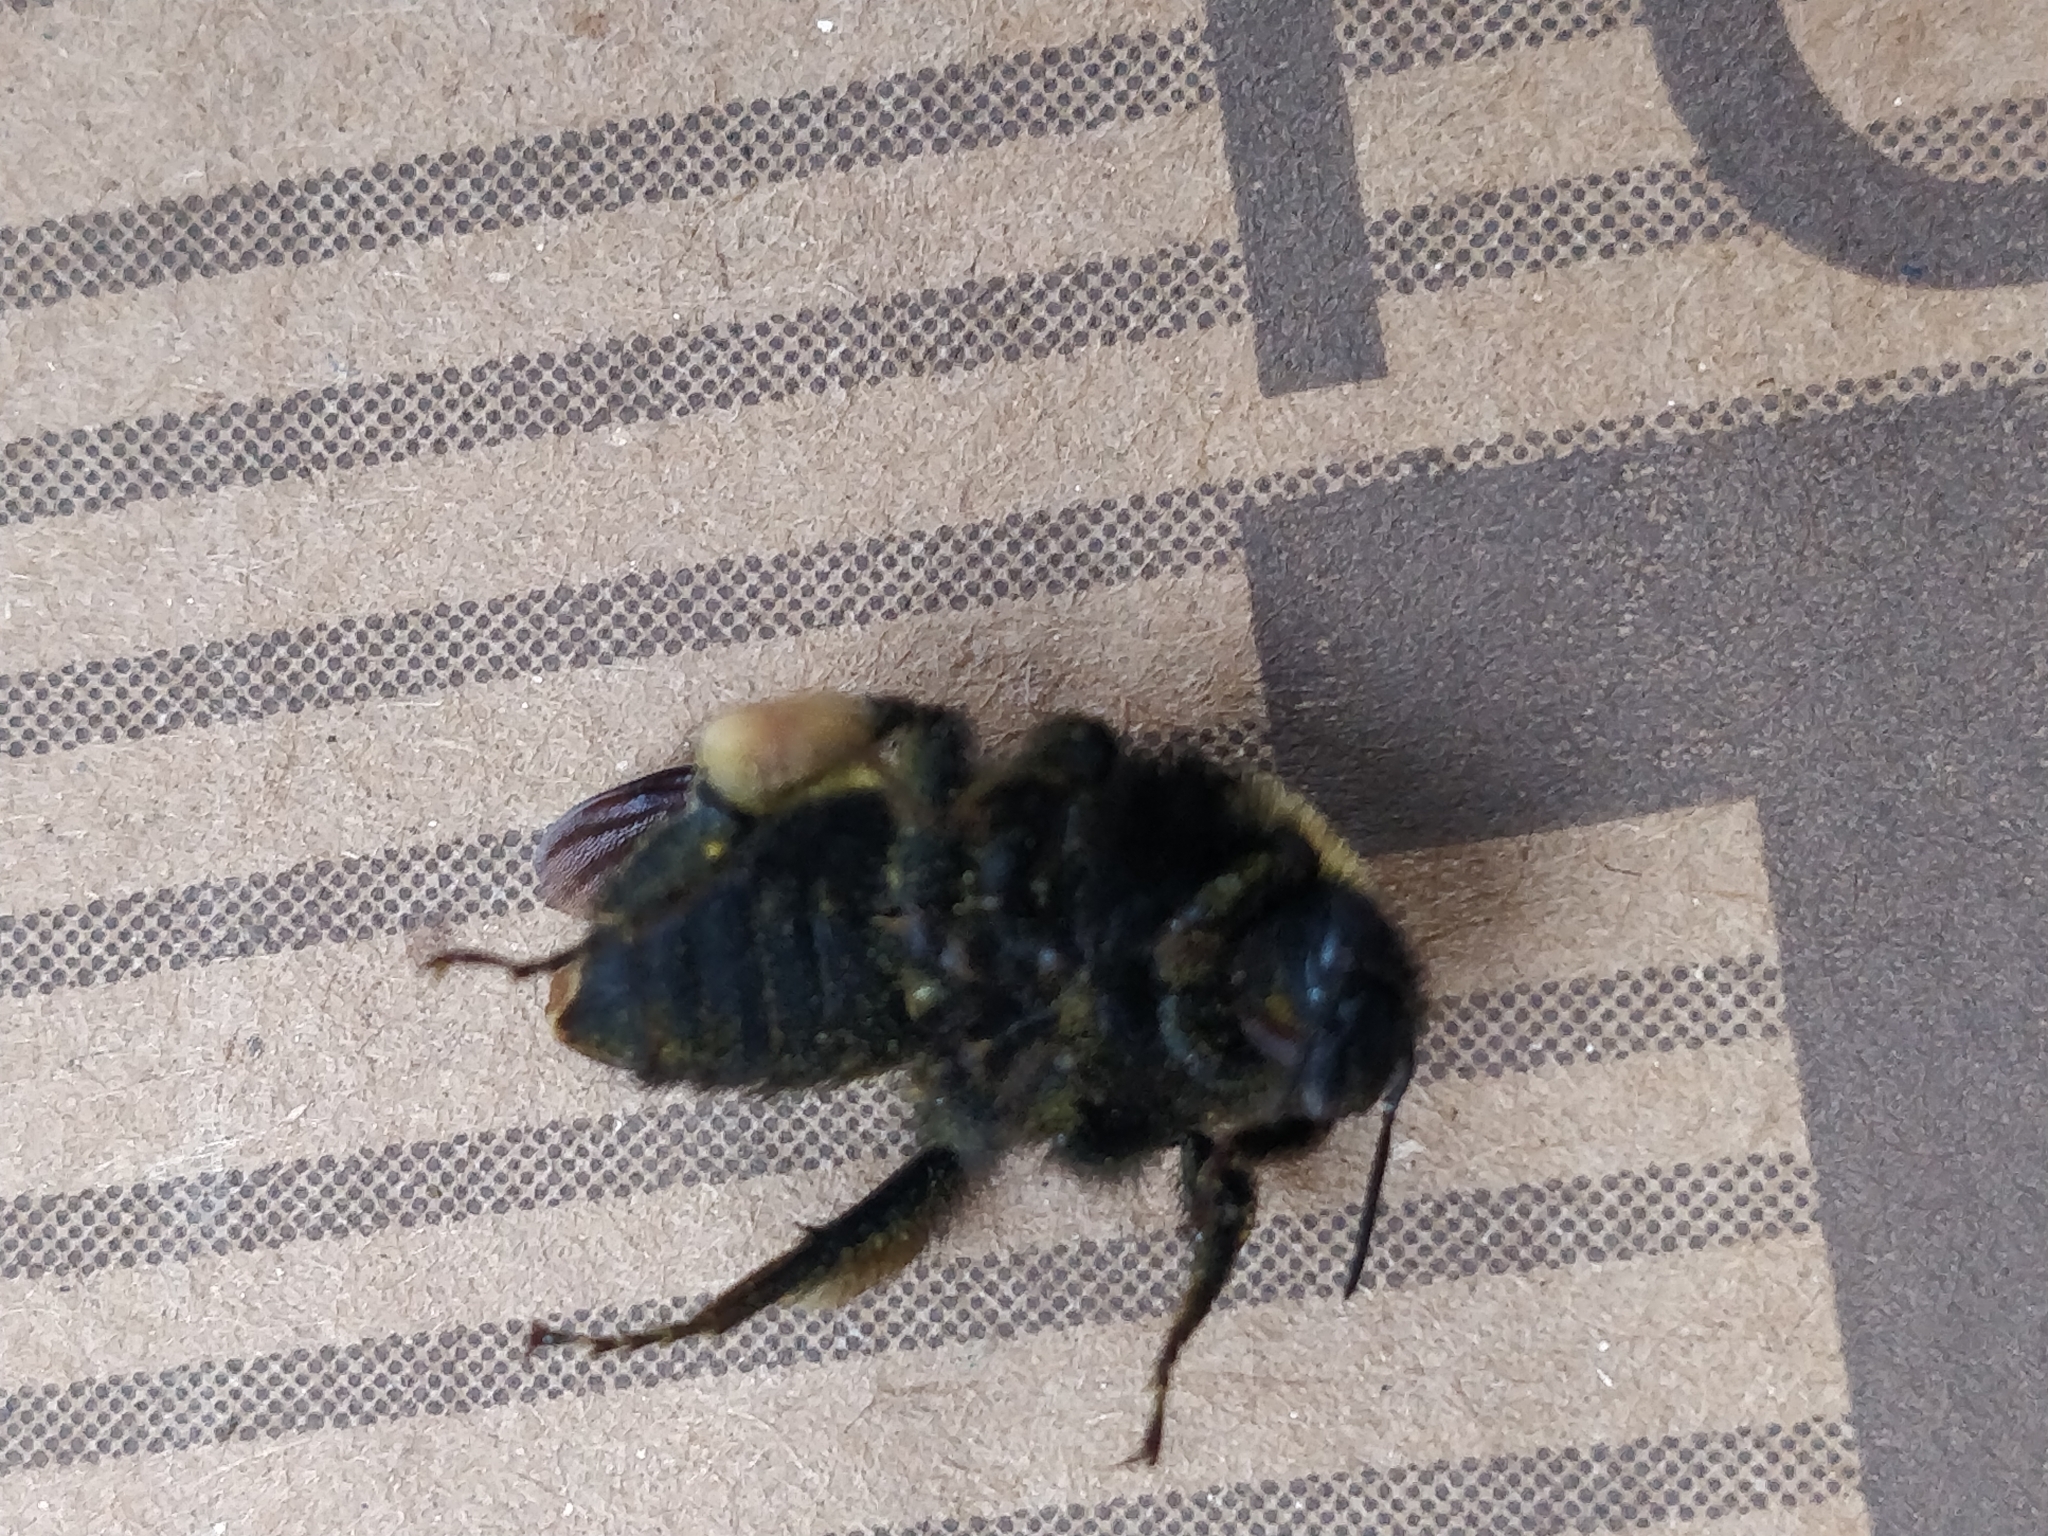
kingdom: Animalia
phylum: Arthropoda
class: Insecta
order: Hymenoptera
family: Apidae
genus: Bombus
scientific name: Bombus pensylvanicus
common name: Bumble bee
